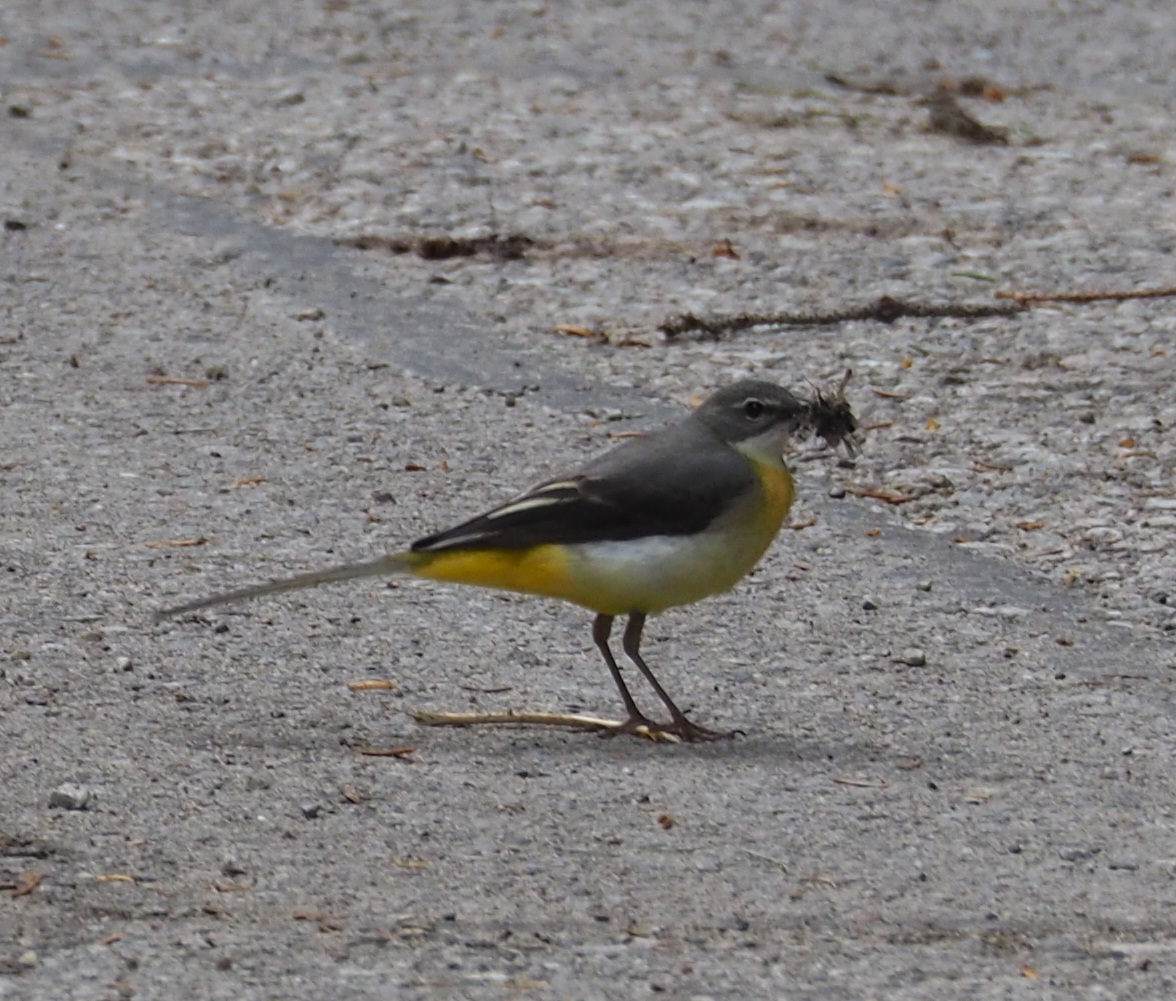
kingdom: Animalia
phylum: Chordata
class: Aves
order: Passeriformes
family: Motacillidae
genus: Motacilla
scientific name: Motacilla cinerea
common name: Grey wagtail
